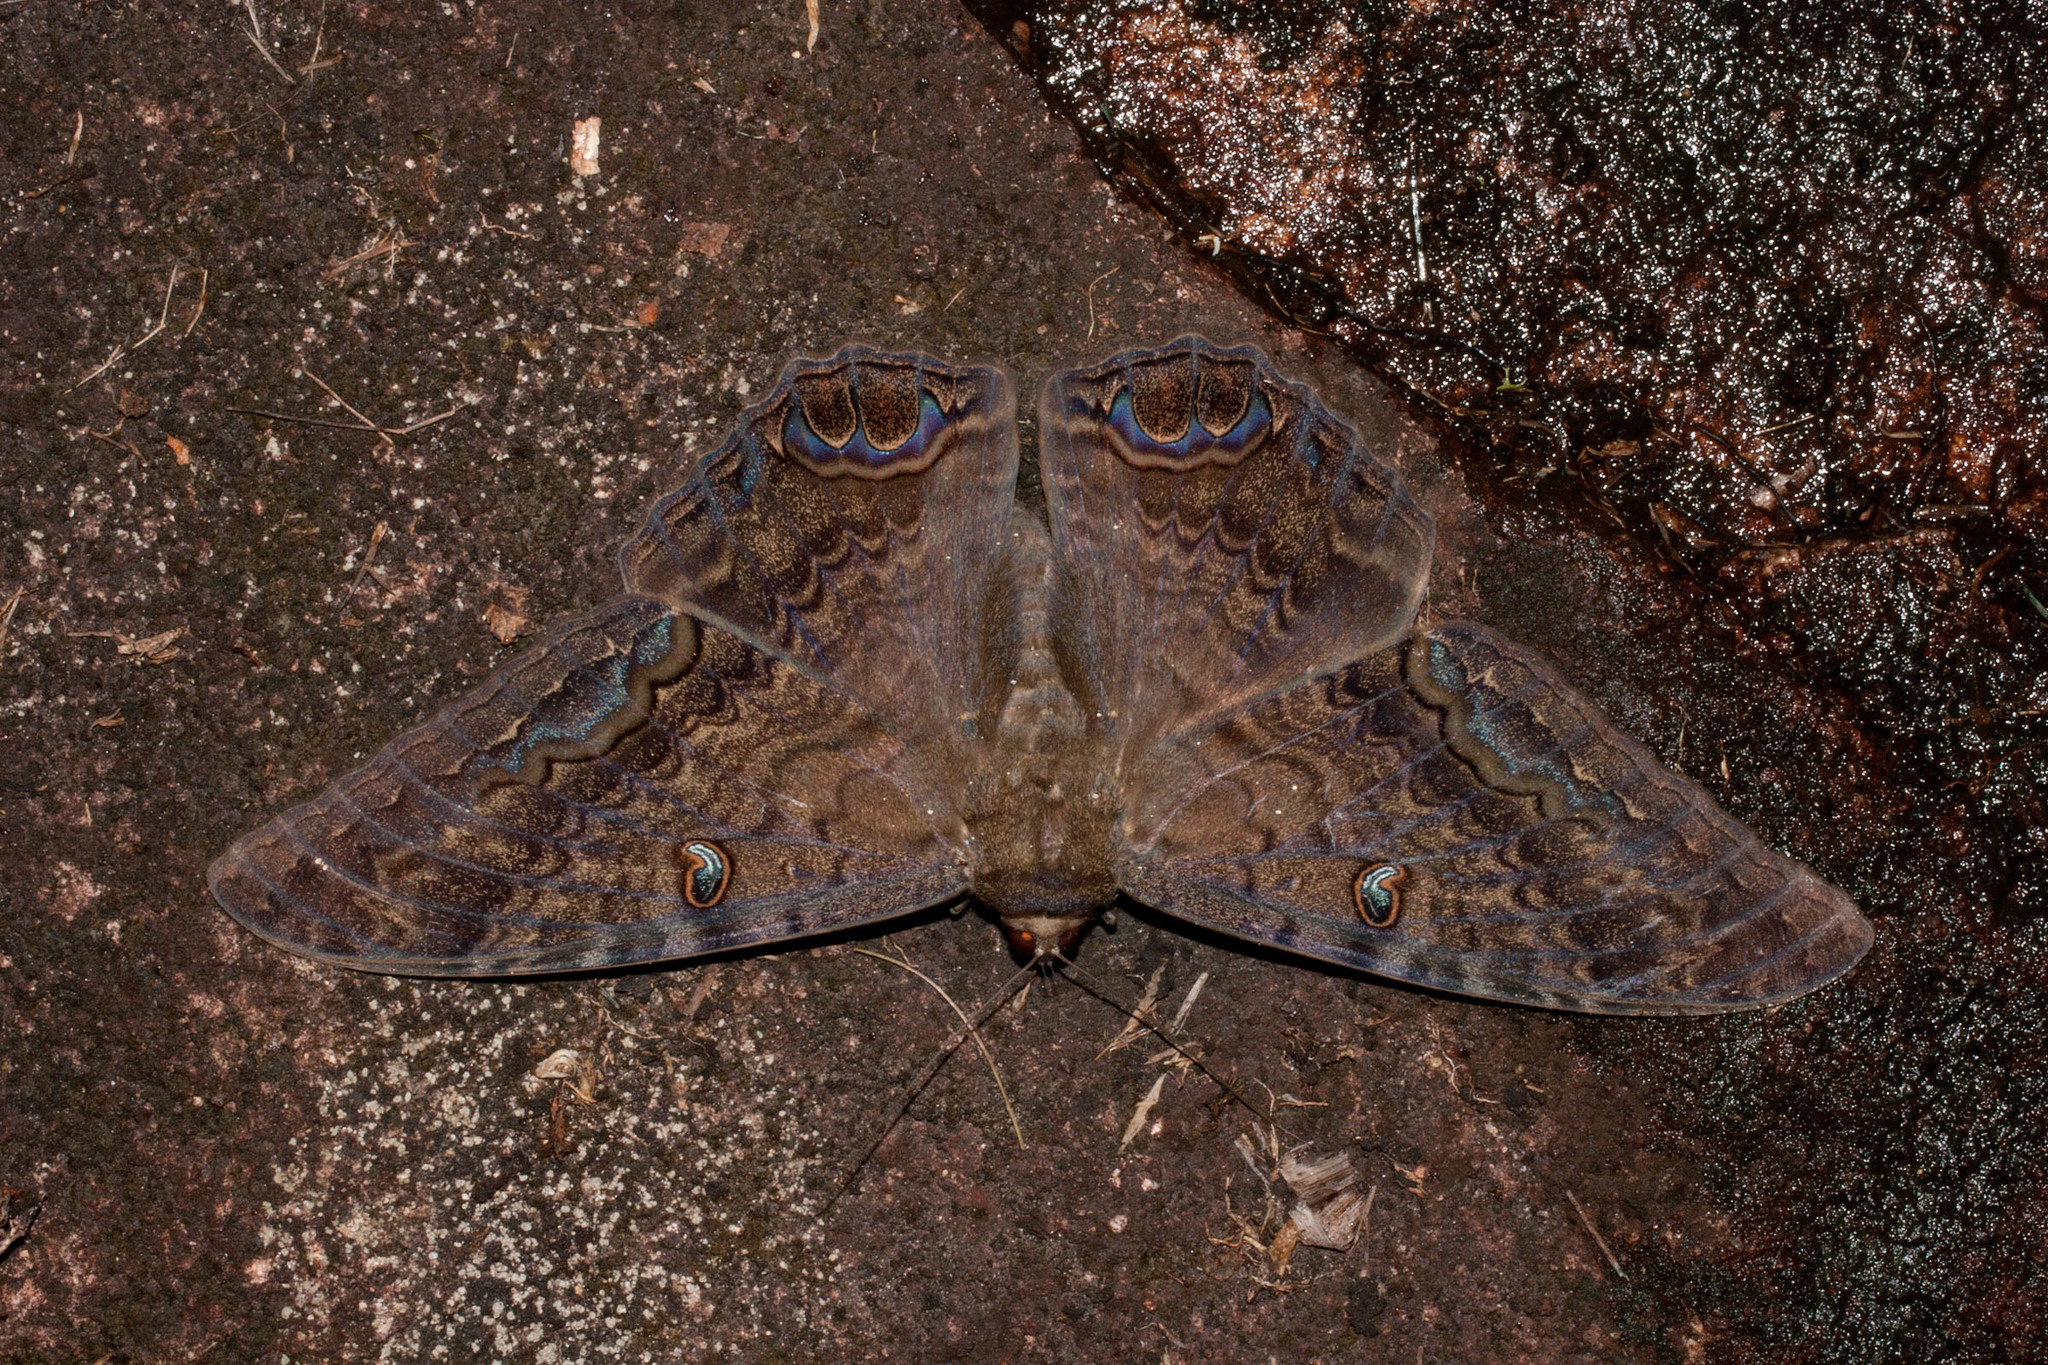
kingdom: Animalia
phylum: Arthropoda
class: Insecta
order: Lepidoptera
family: Erebidae
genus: Ascalapha
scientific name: Ascalapha odorata
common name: Black witch
